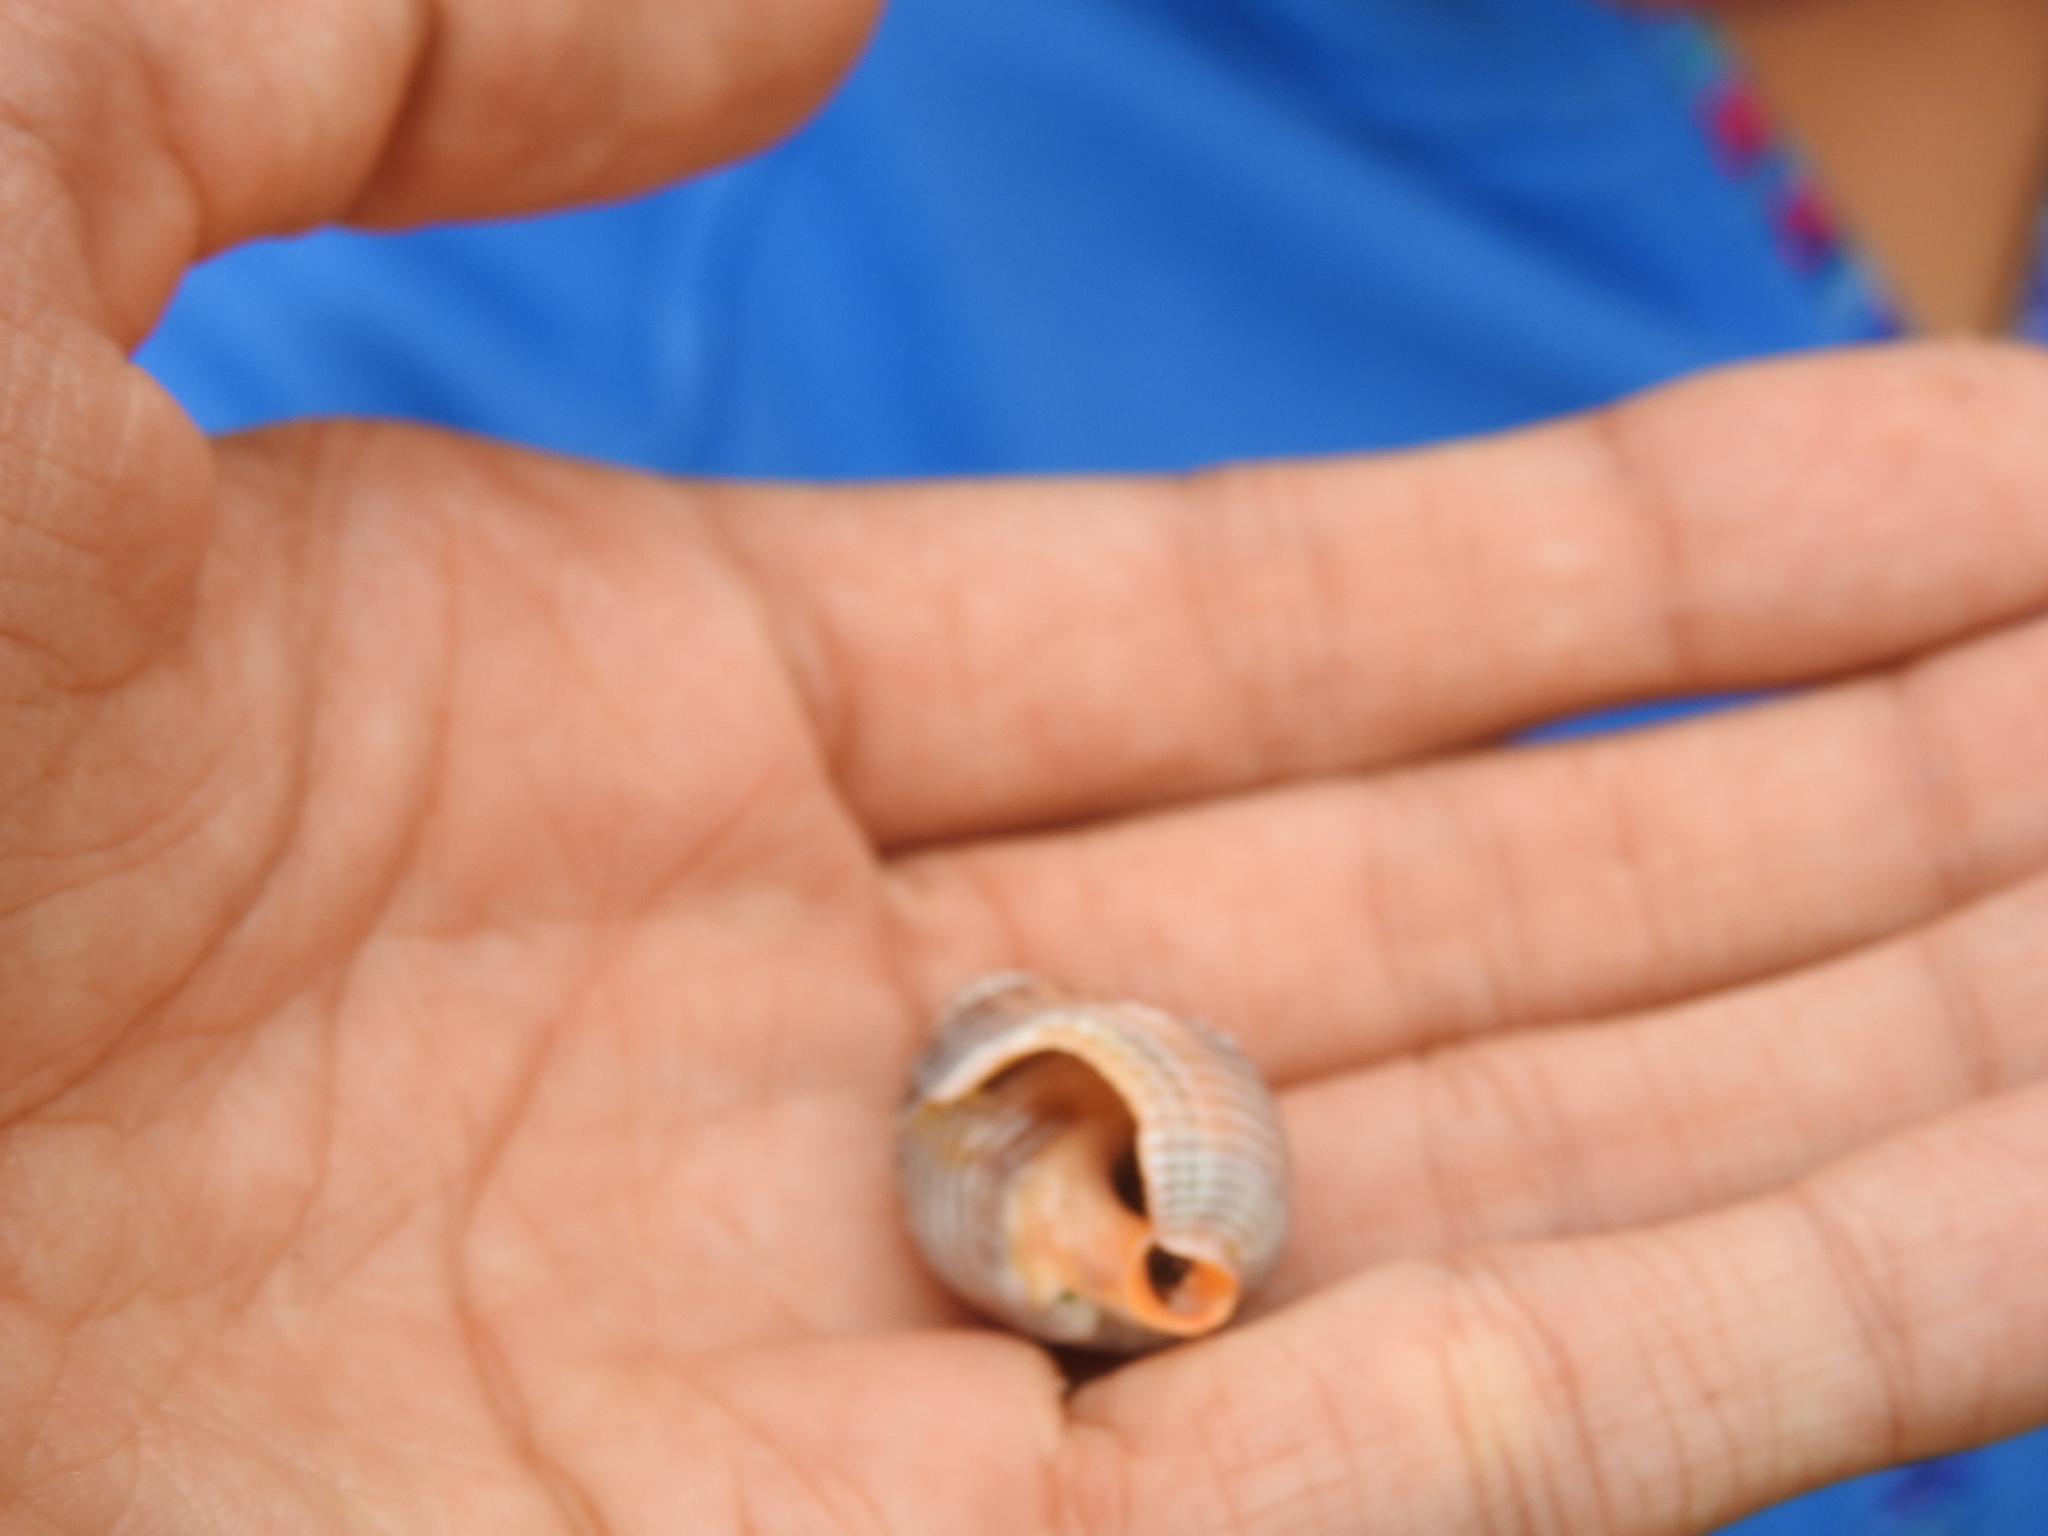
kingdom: Animalia
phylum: Mollusca
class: Gastropoda
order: Neogastropoda
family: Nassariidae
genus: Caesia
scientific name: Caesia fossata
